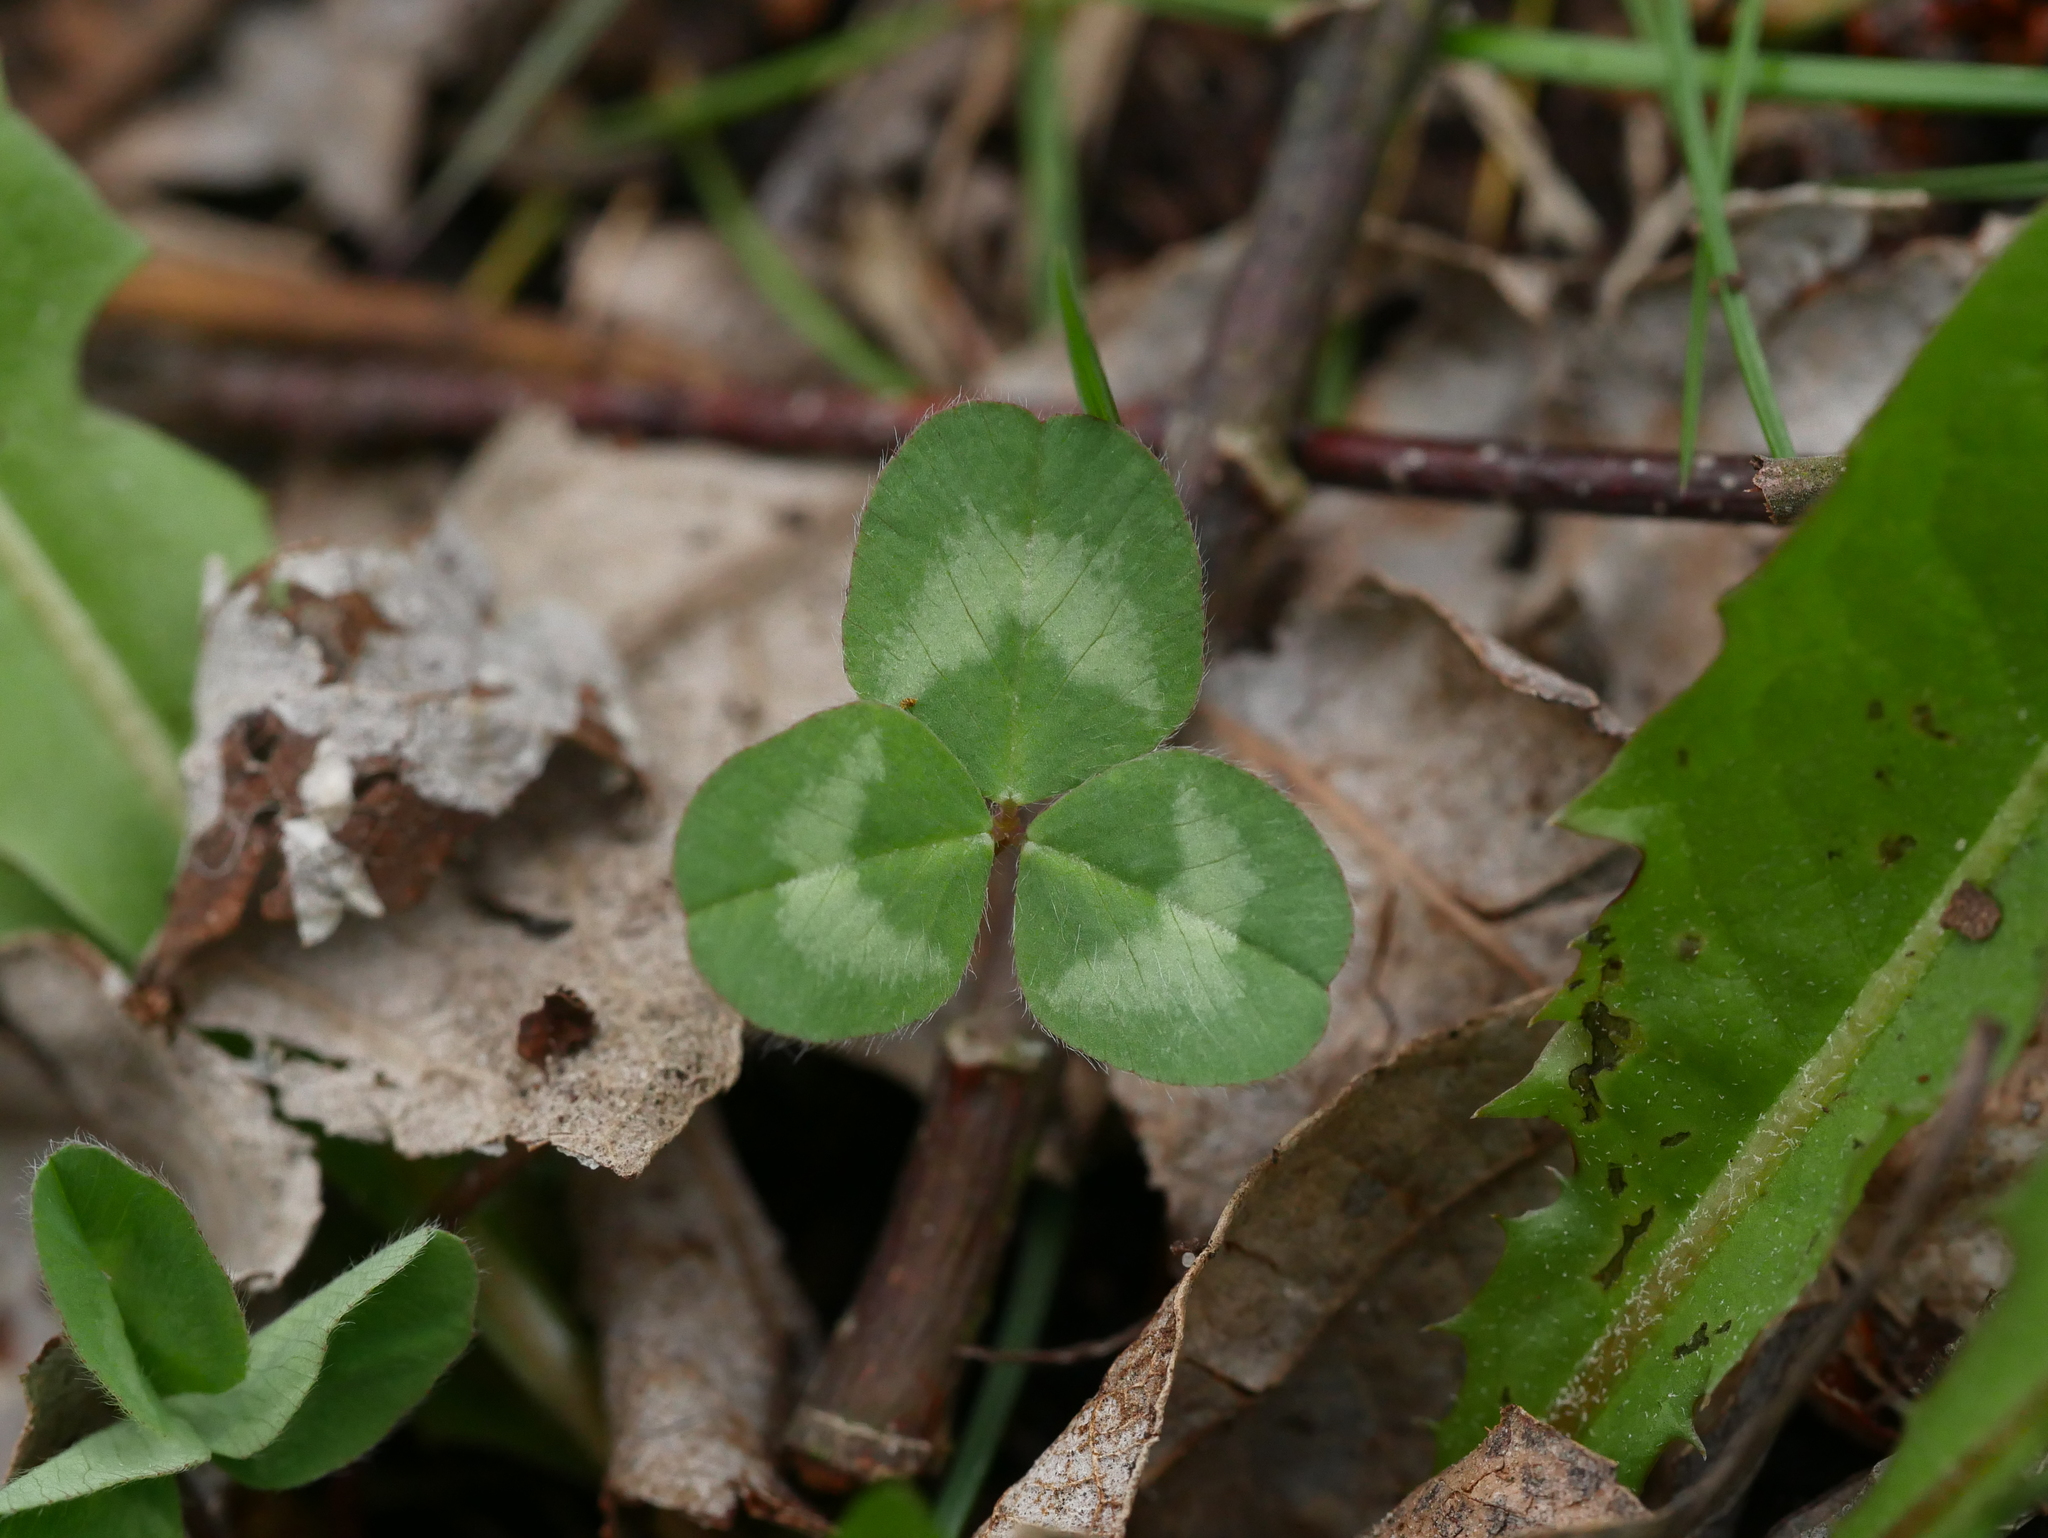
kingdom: Plantae
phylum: Tracheophyta
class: Magnoliopsida
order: Fabales
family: Fabaceae
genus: Trifolium
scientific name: Trifolium repens
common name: White clover
